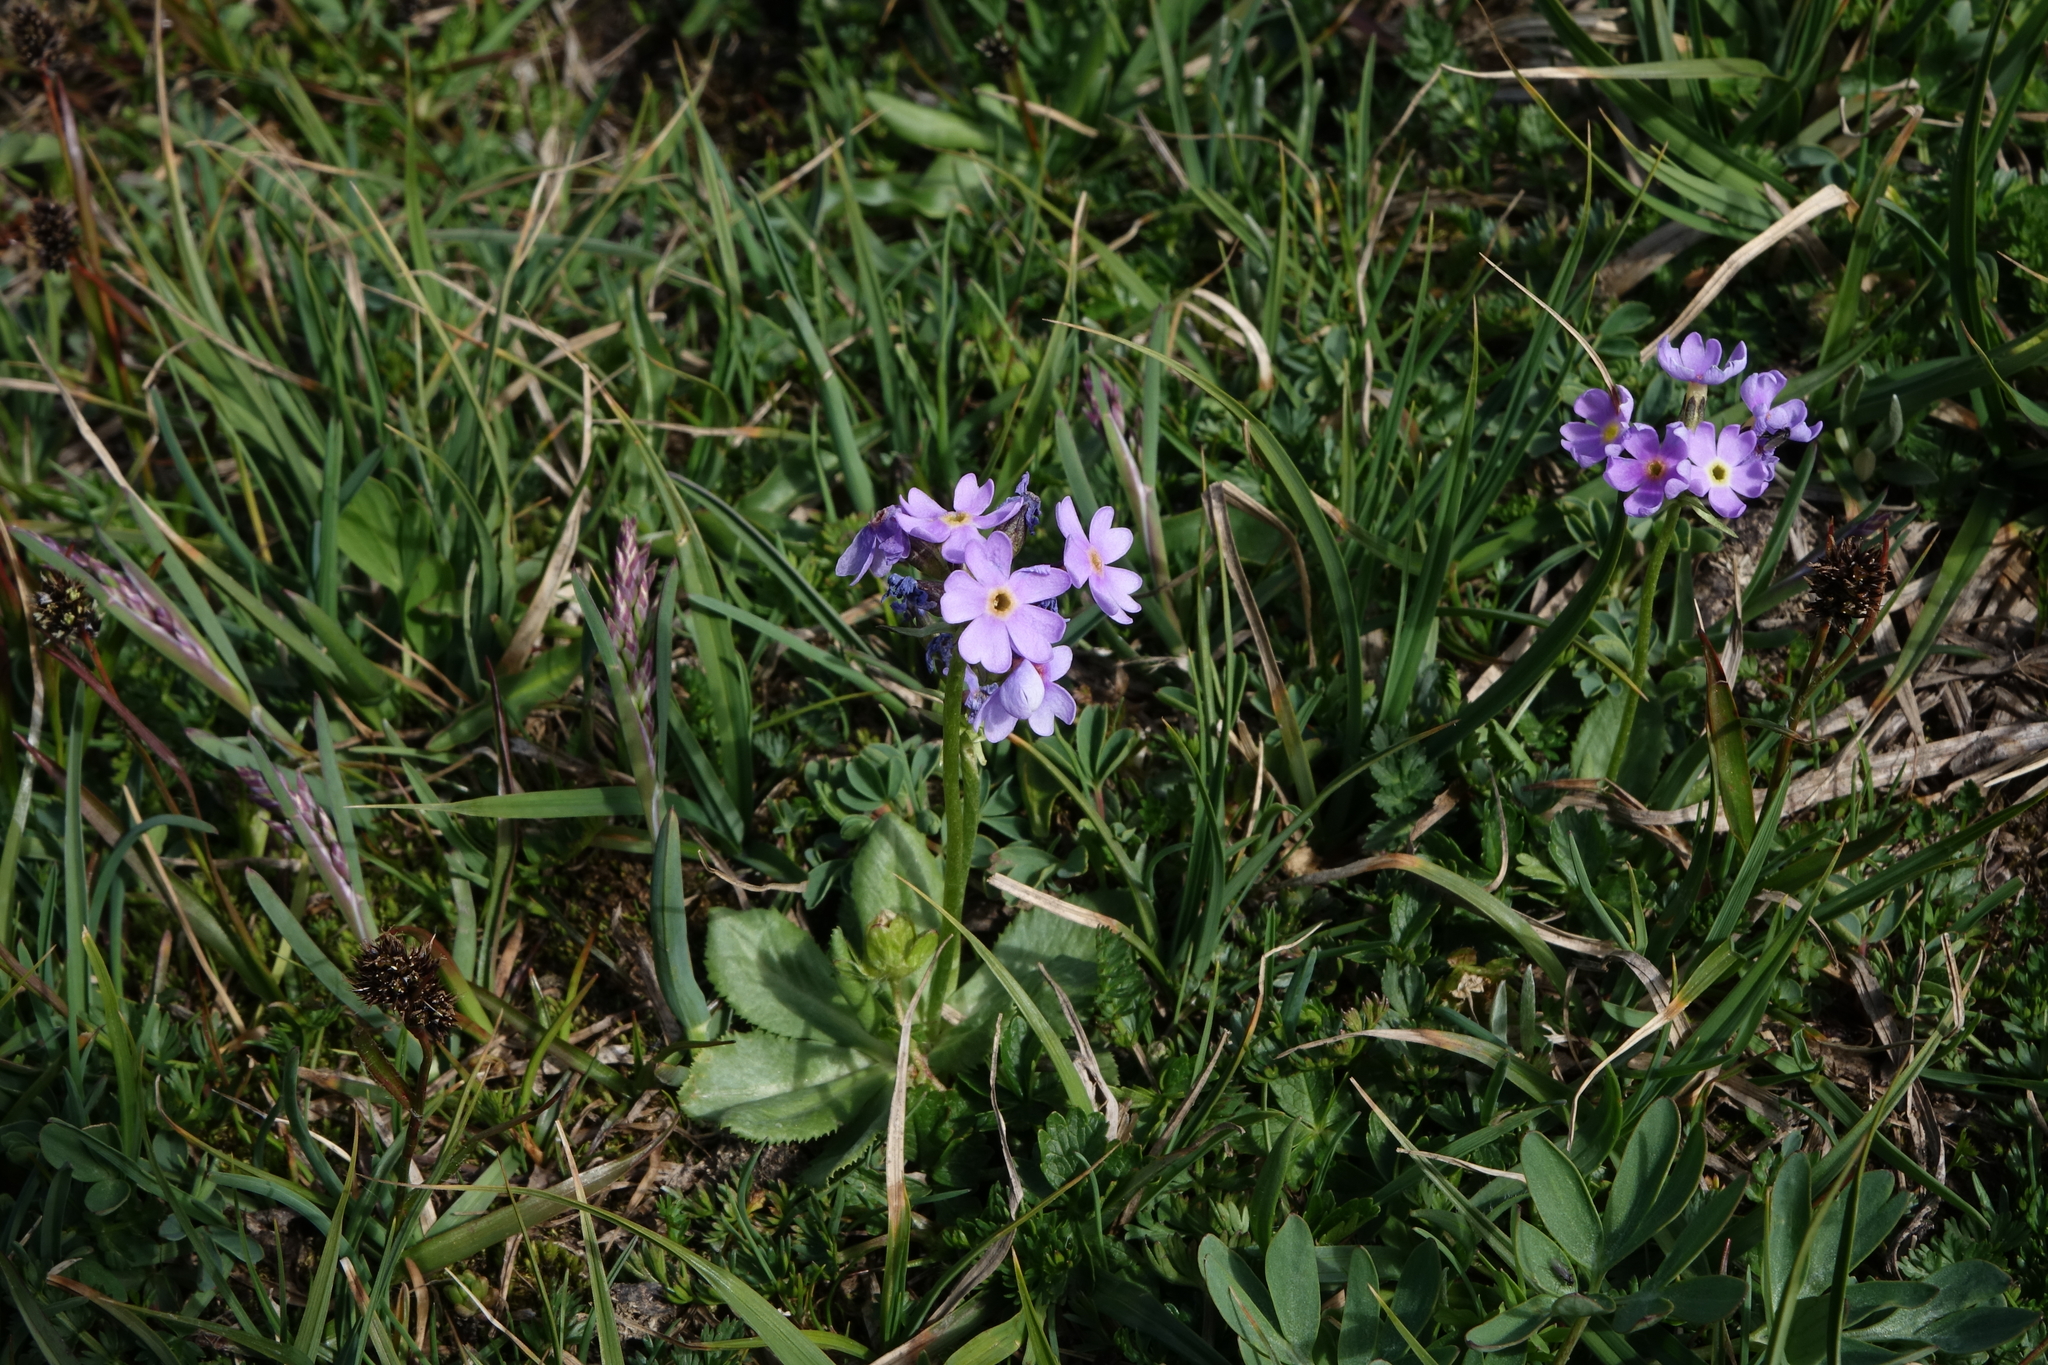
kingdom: Plantae
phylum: Tracheophyta
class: Magnoliopsida
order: Ericales
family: Primulaceae
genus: Primula
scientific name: Primula algida
